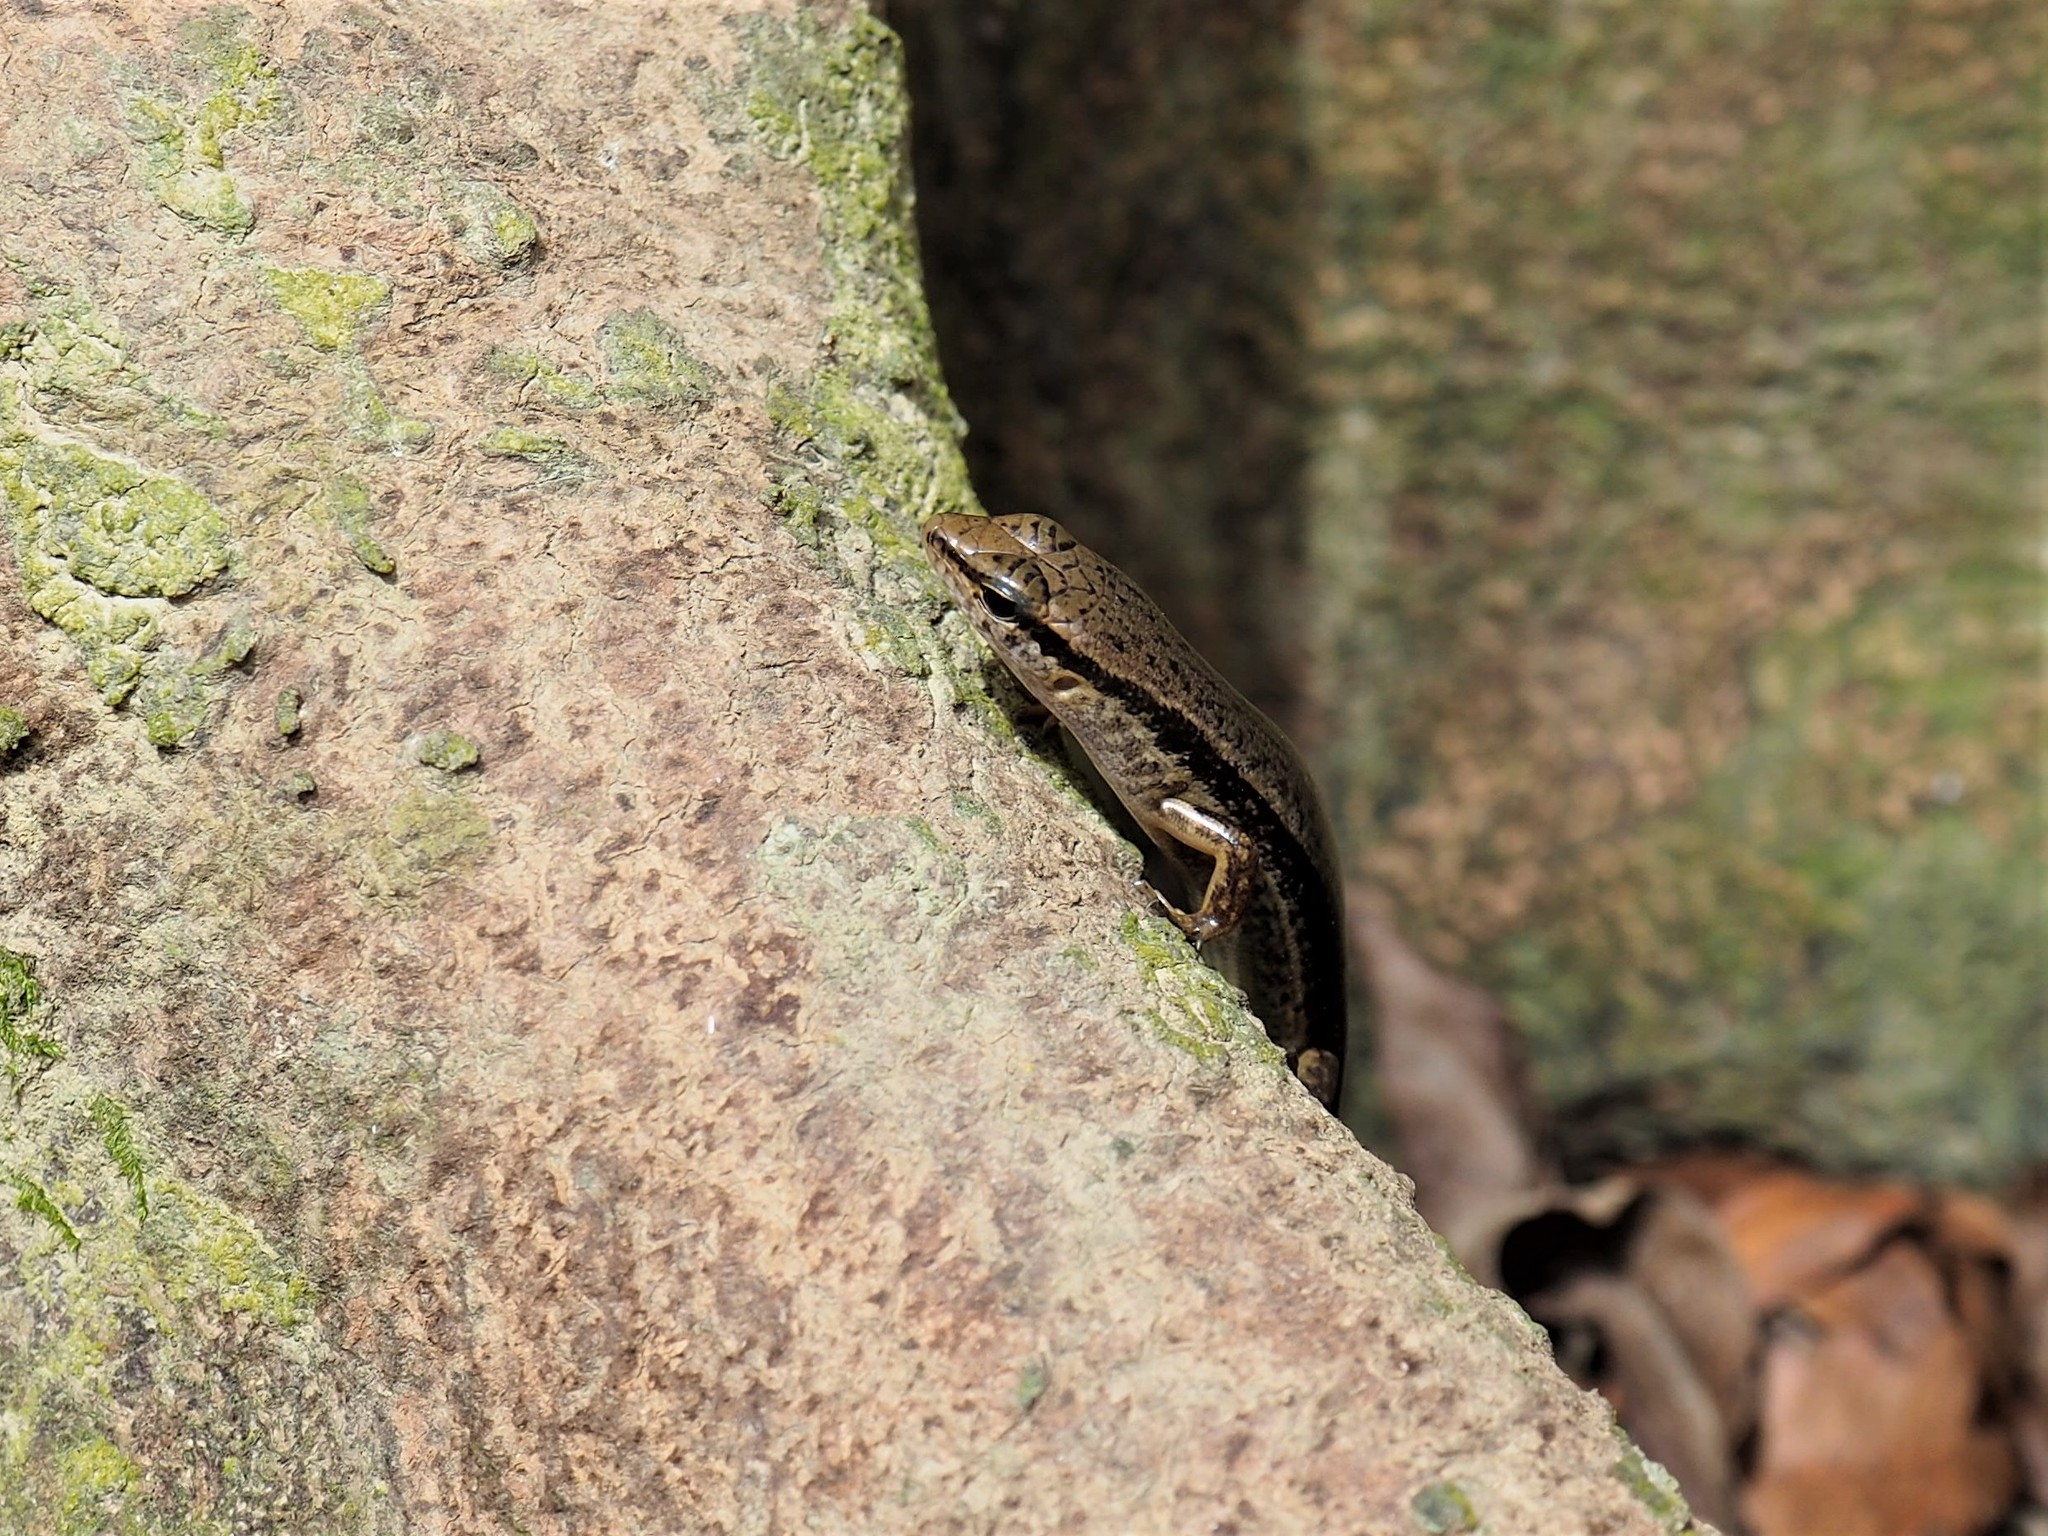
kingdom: Animalia
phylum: Chordata
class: Squamata
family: Scincidae
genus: Sphenomorphus
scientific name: Sphenomorphus indicus
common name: Himalayan forest skink
